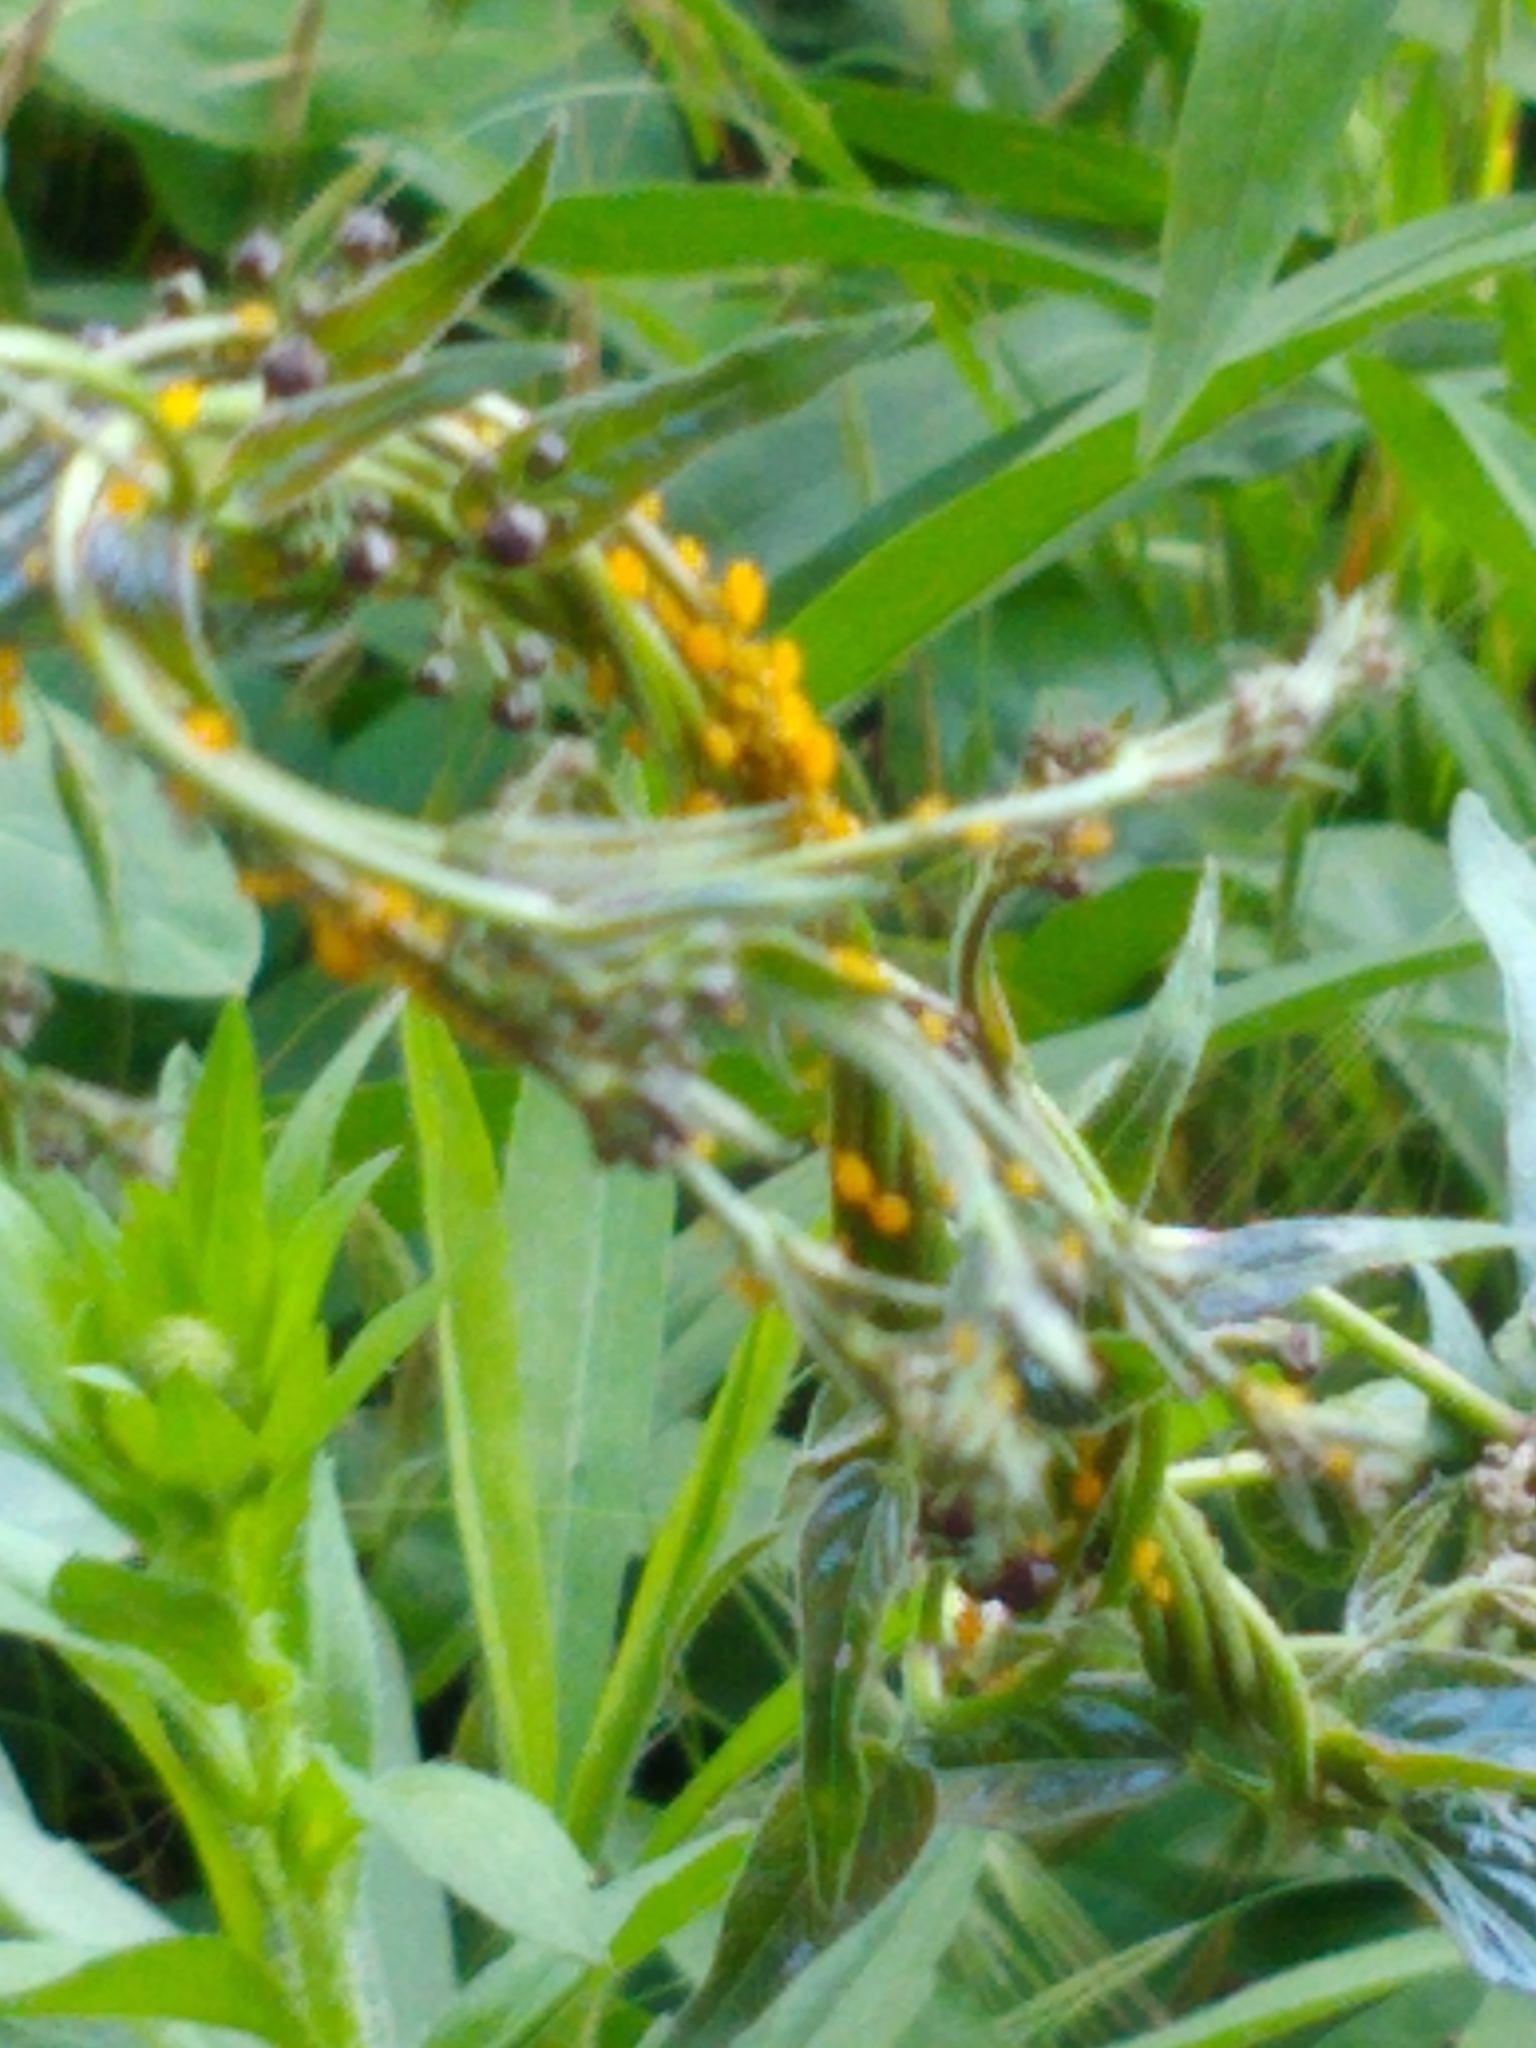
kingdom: Animalia
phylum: Arthropoda
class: Insecta
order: Hemiptera
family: Aphididae
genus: Aphis
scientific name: Aphis nerii
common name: Oleander aphid
